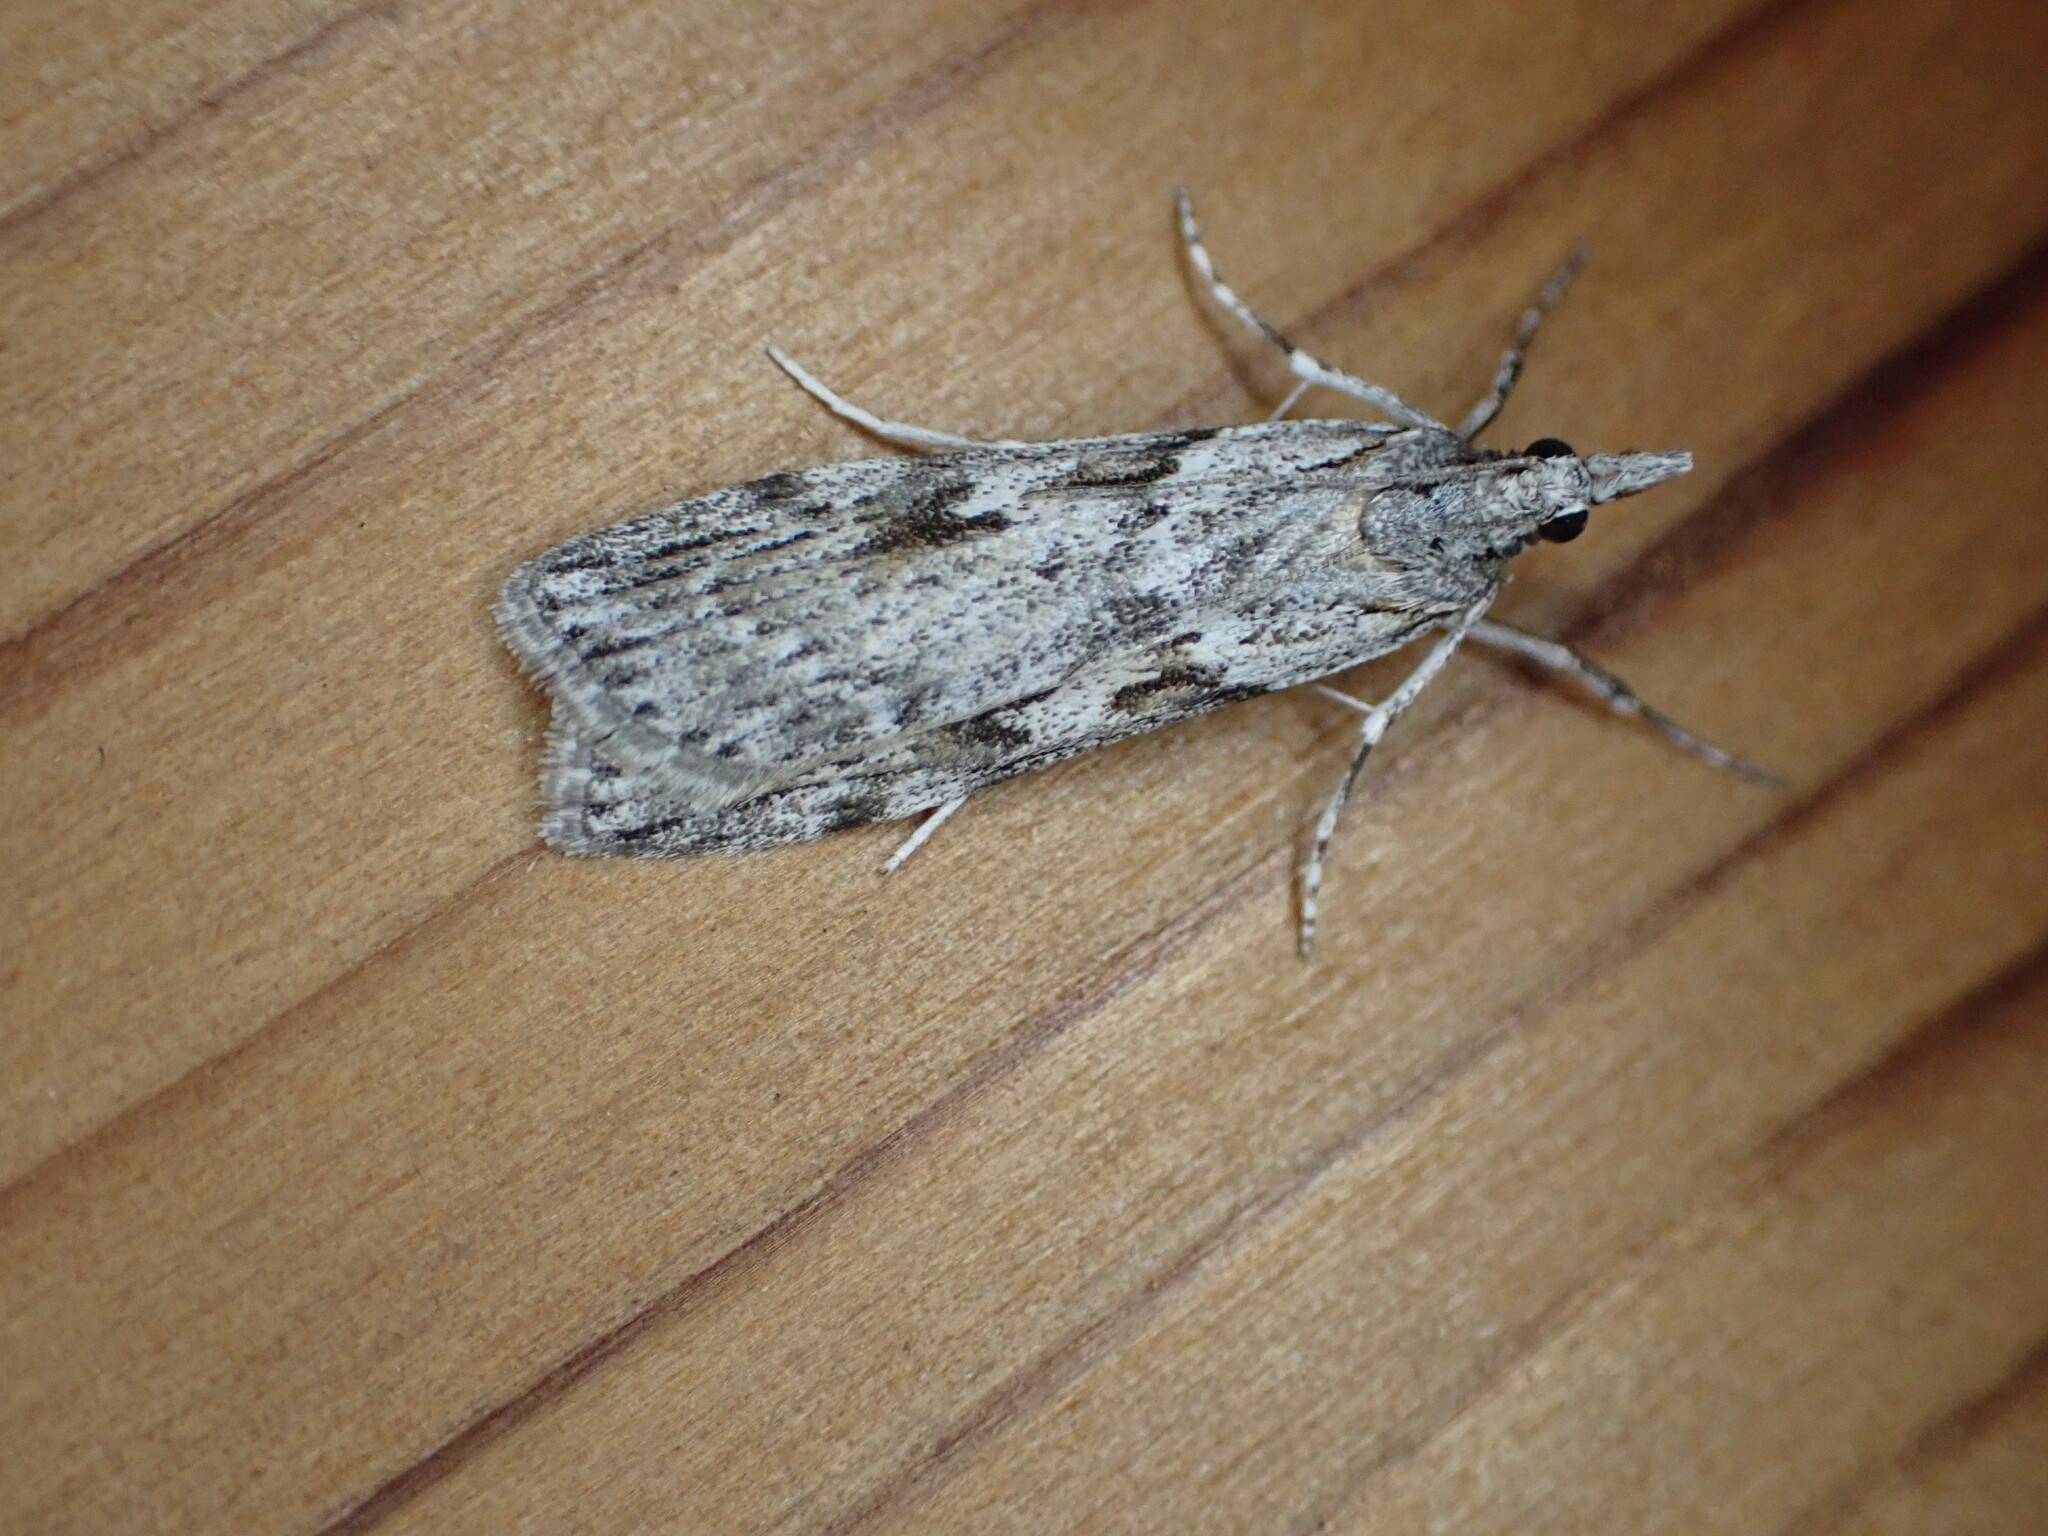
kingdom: Animalia
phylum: Arthropoda
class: Insecta
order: Lepidoptera
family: Crambidae
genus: Scoparia
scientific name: Scoparia halopis
